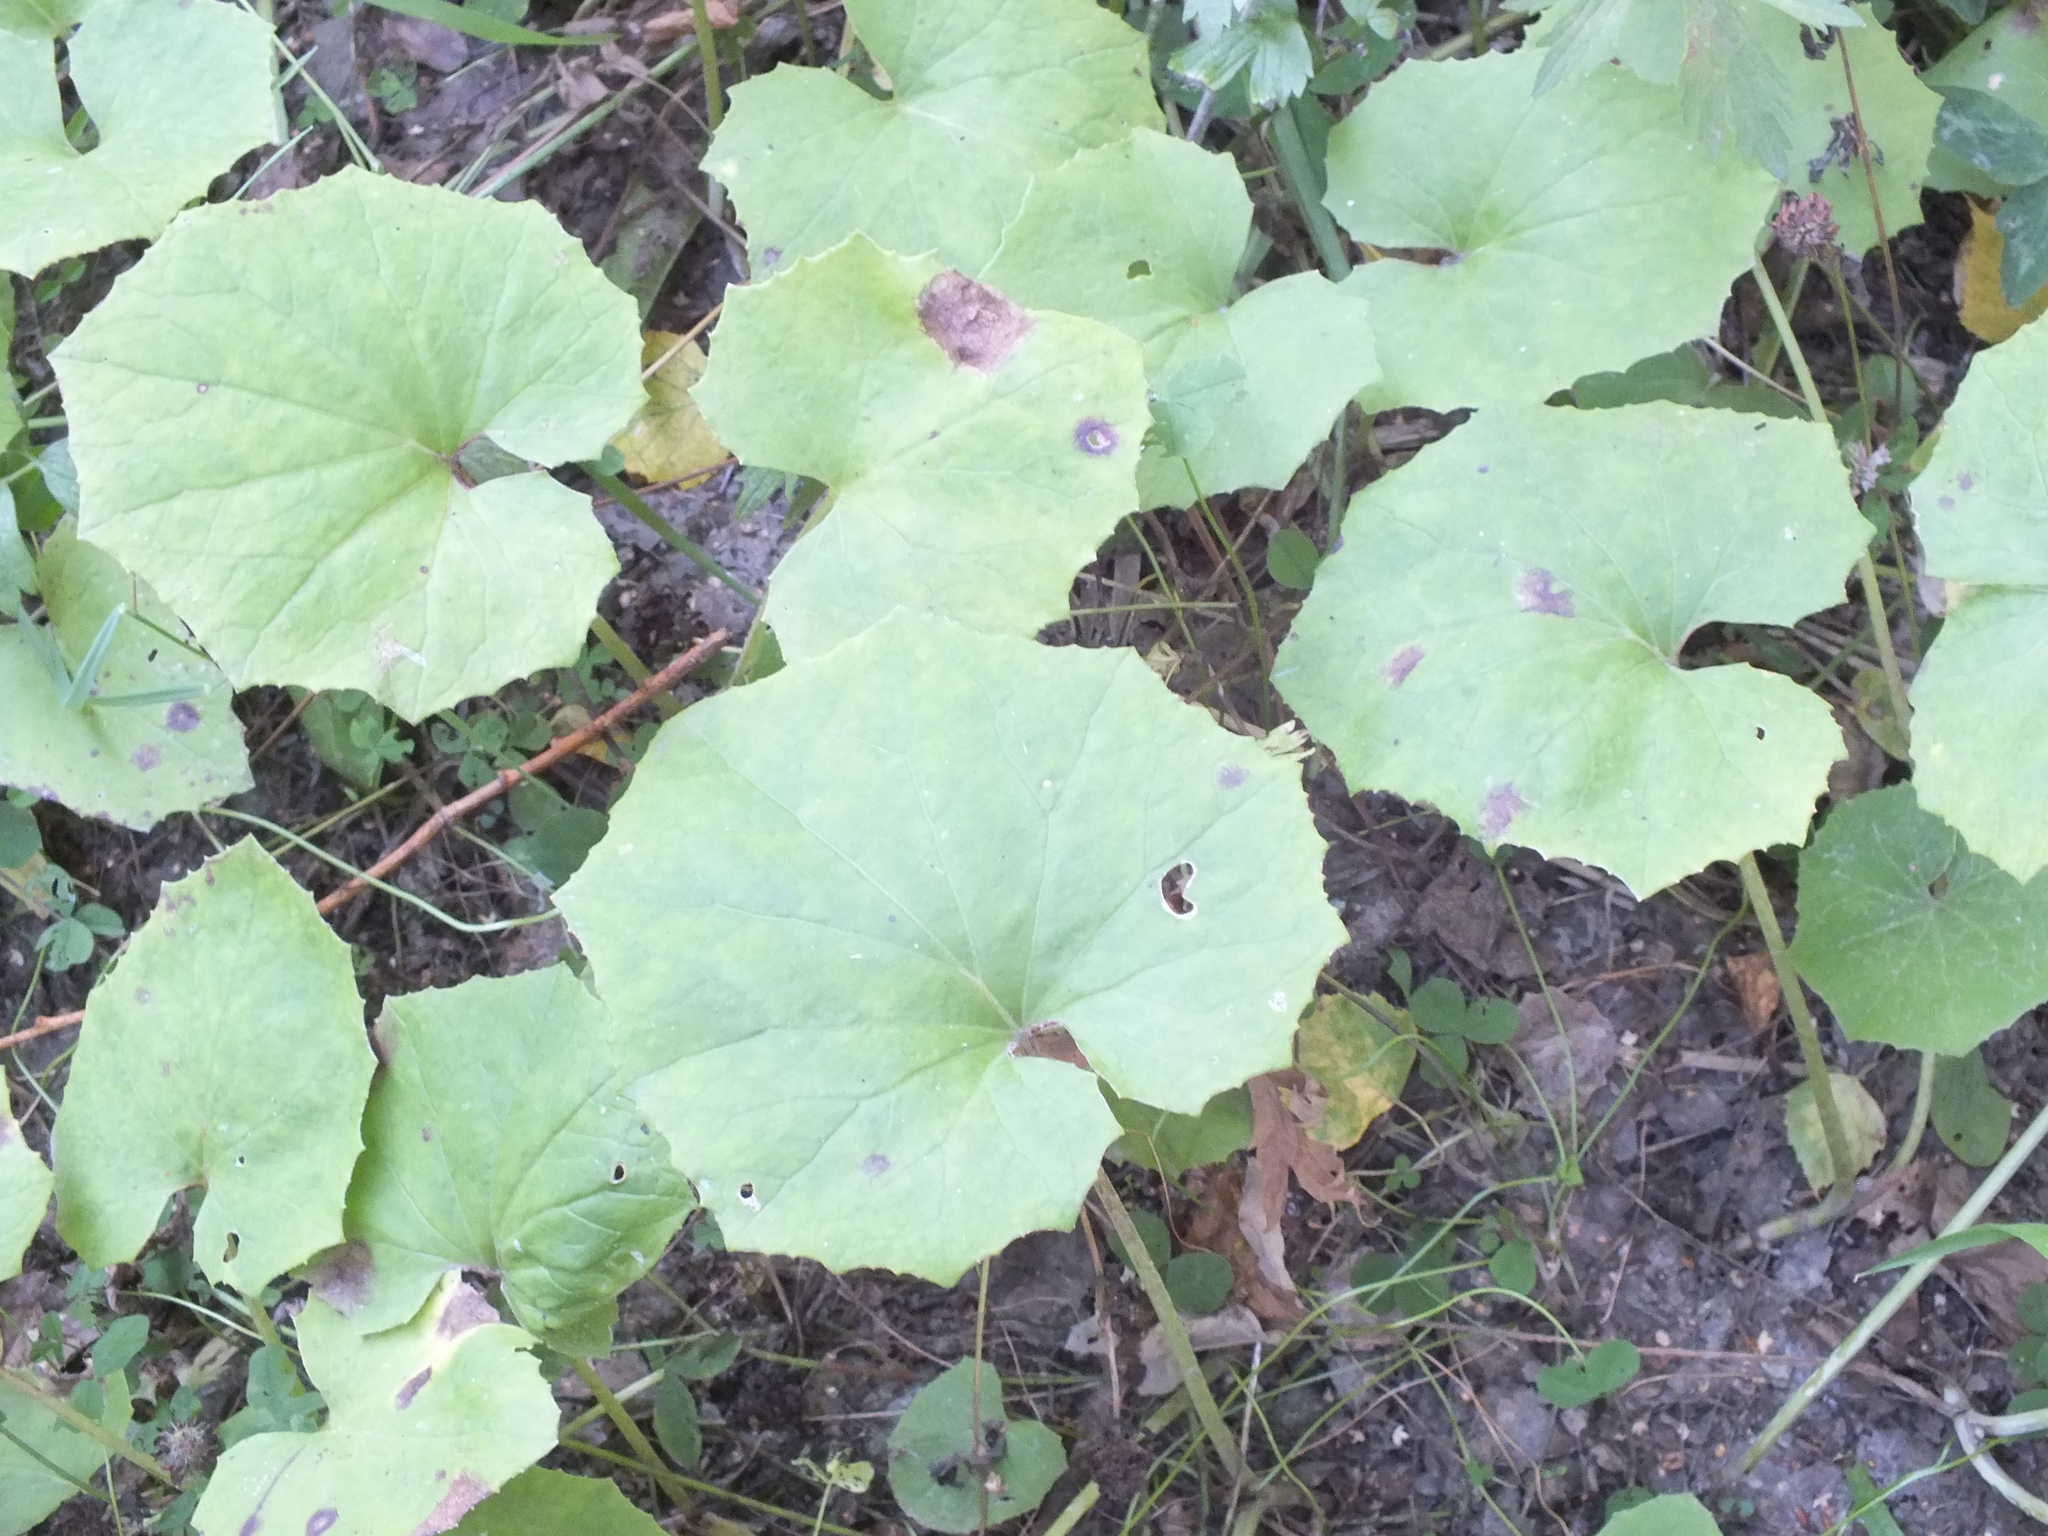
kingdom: Plantae
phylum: Tracheophyta
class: Magnoliopsida
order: Asterales
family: Asteraceae
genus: Tussilago
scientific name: Tussilago farfara
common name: Coltsfoot
